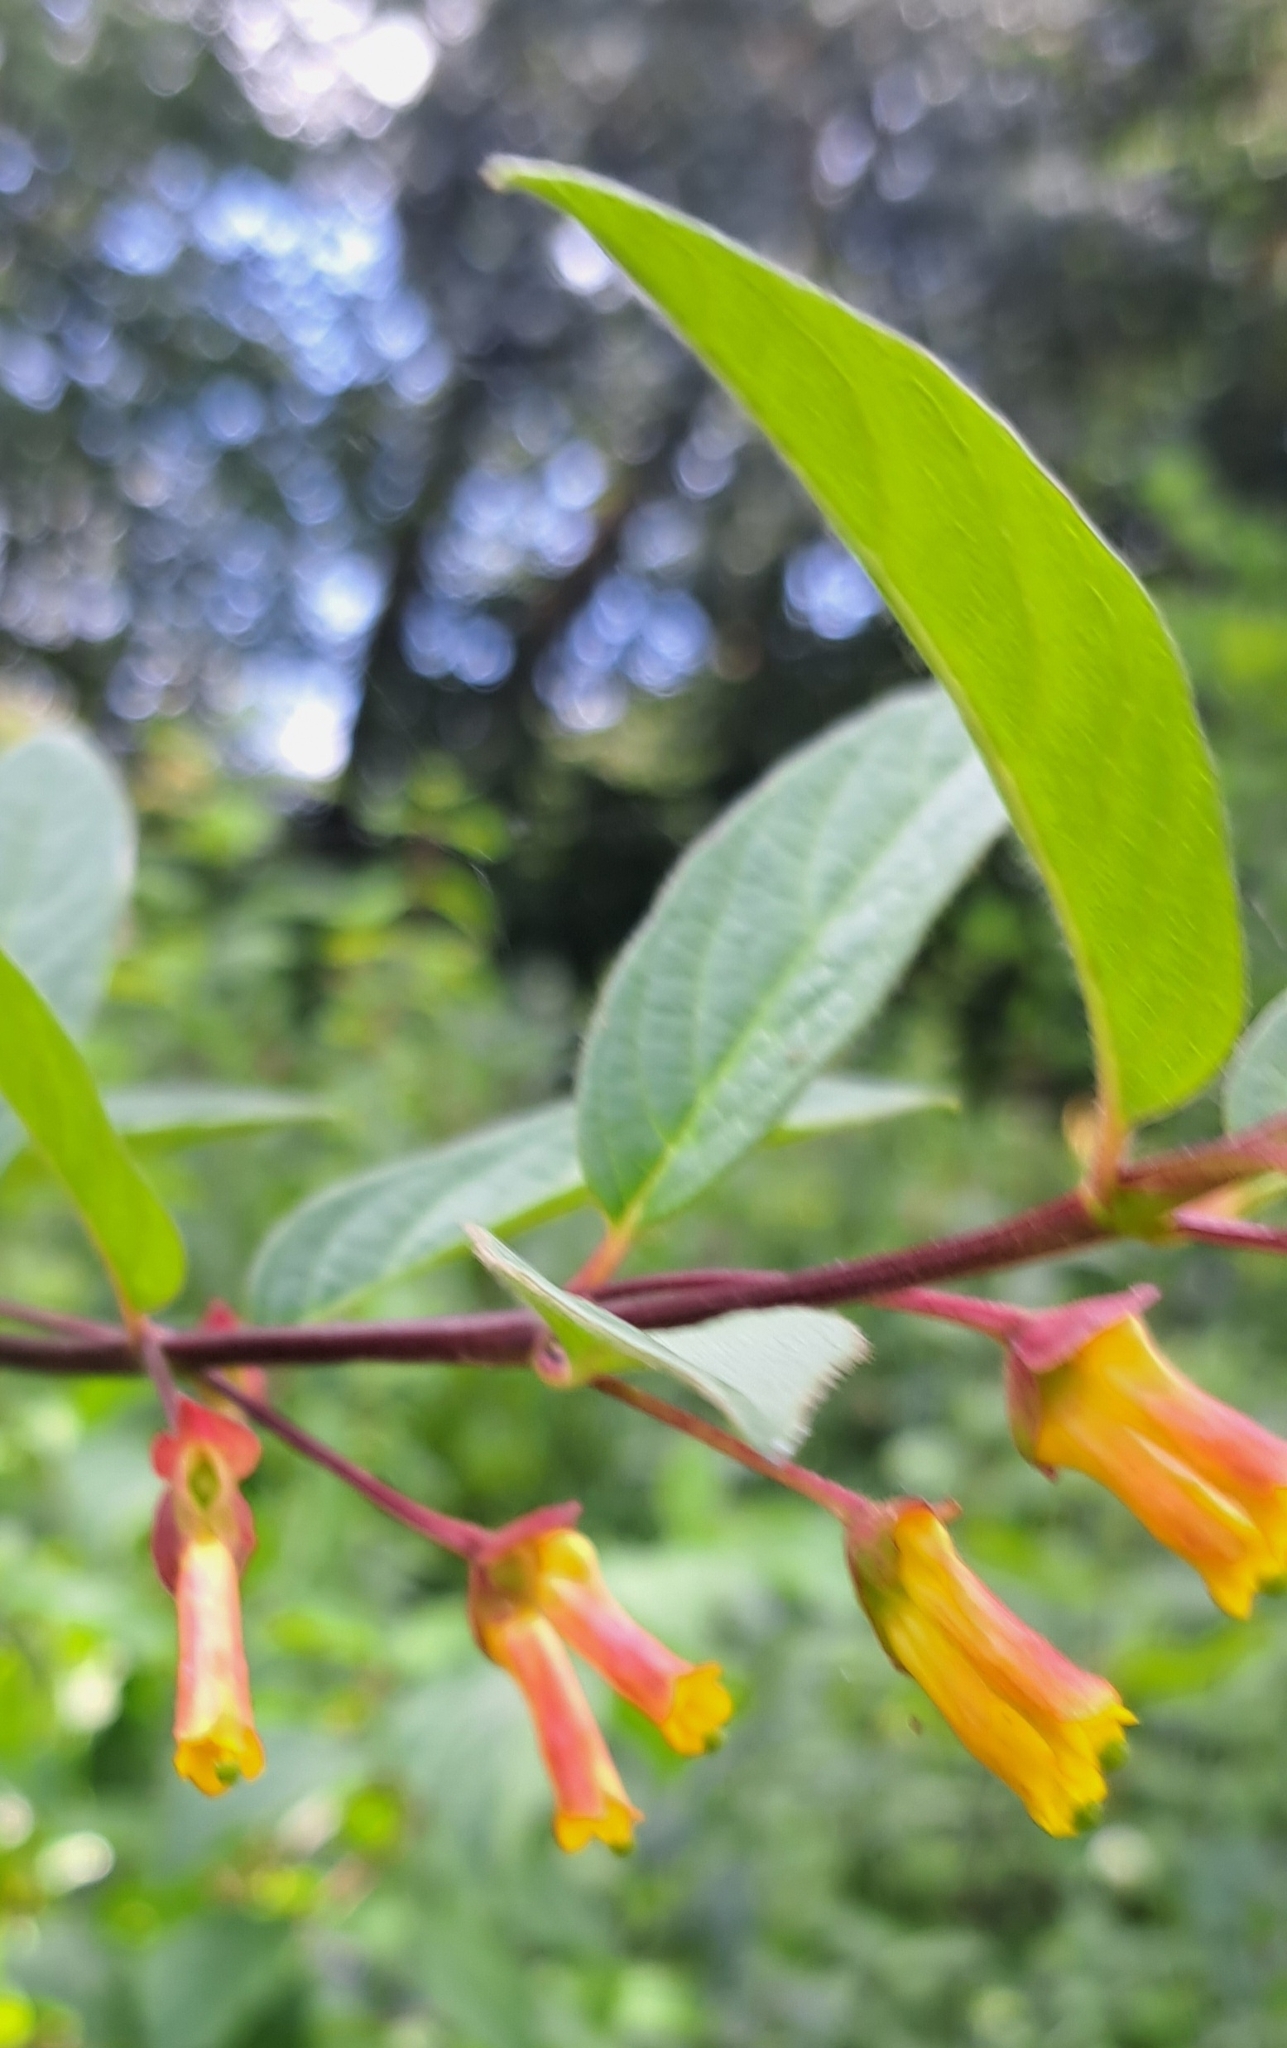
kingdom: Plantae
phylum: Tracheophyta
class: Magnoliopsida
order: Dipsacales
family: Caprifoliaceae
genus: Lonicera
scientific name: Lonicera involucrata
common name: Californian honeysuckle
